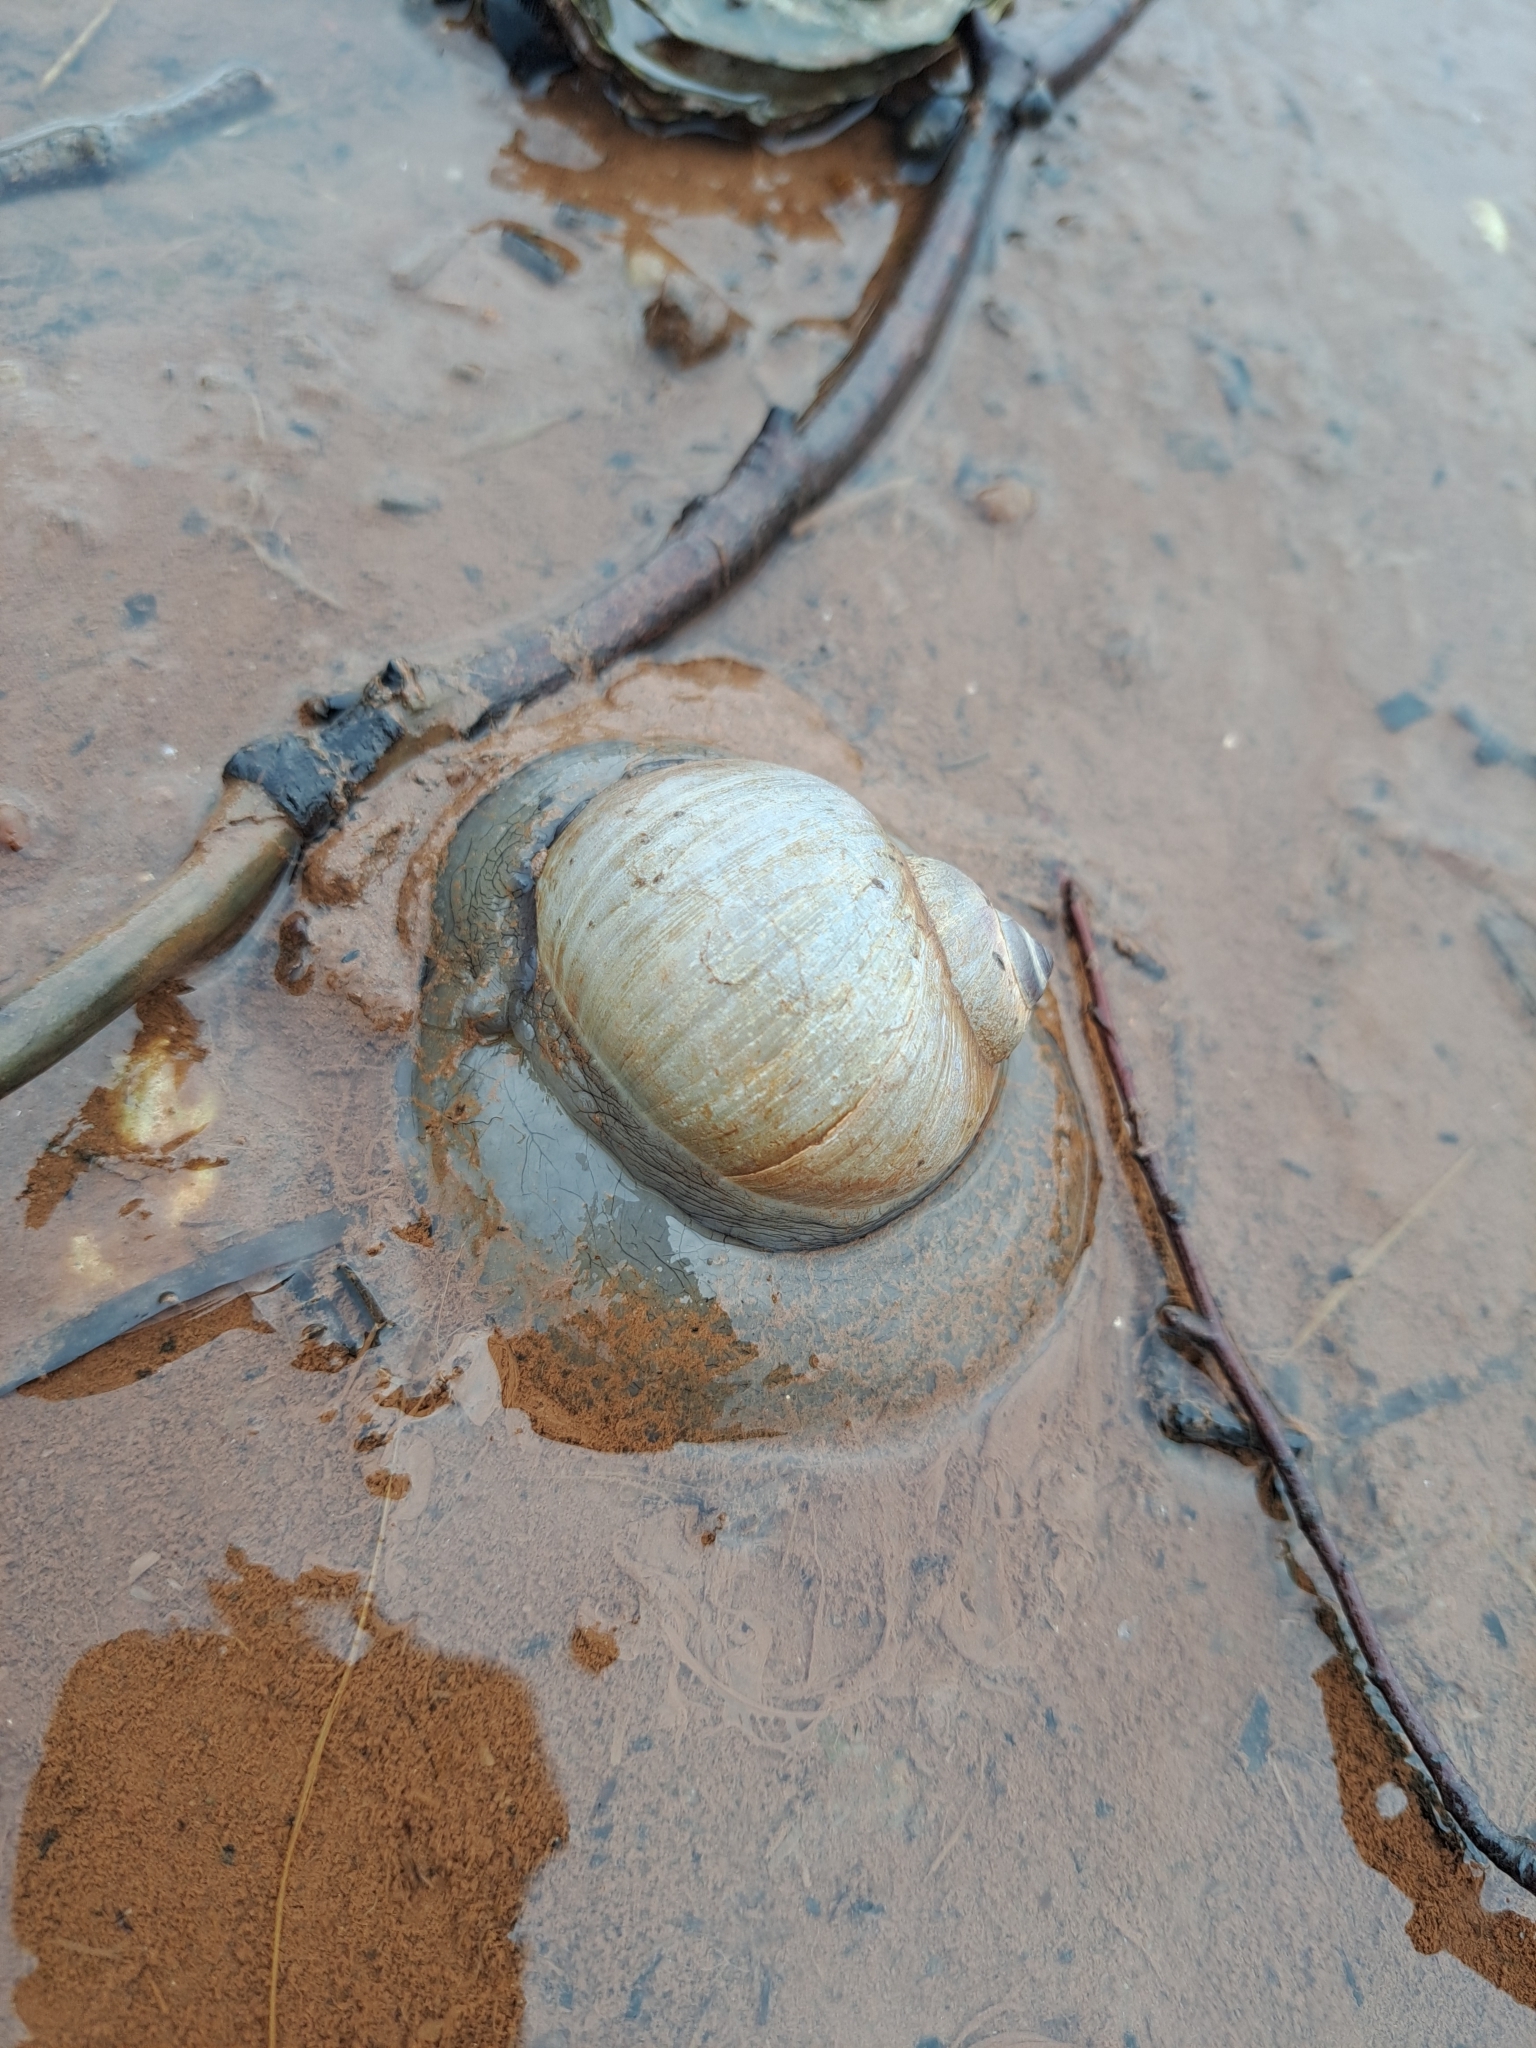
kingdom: Animalia
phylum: Mollusca
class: Gastropoda
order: Littorinimorpha
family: Naticidae
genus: Euspira
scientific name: Euspira heros
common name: Common northern moonsnail
